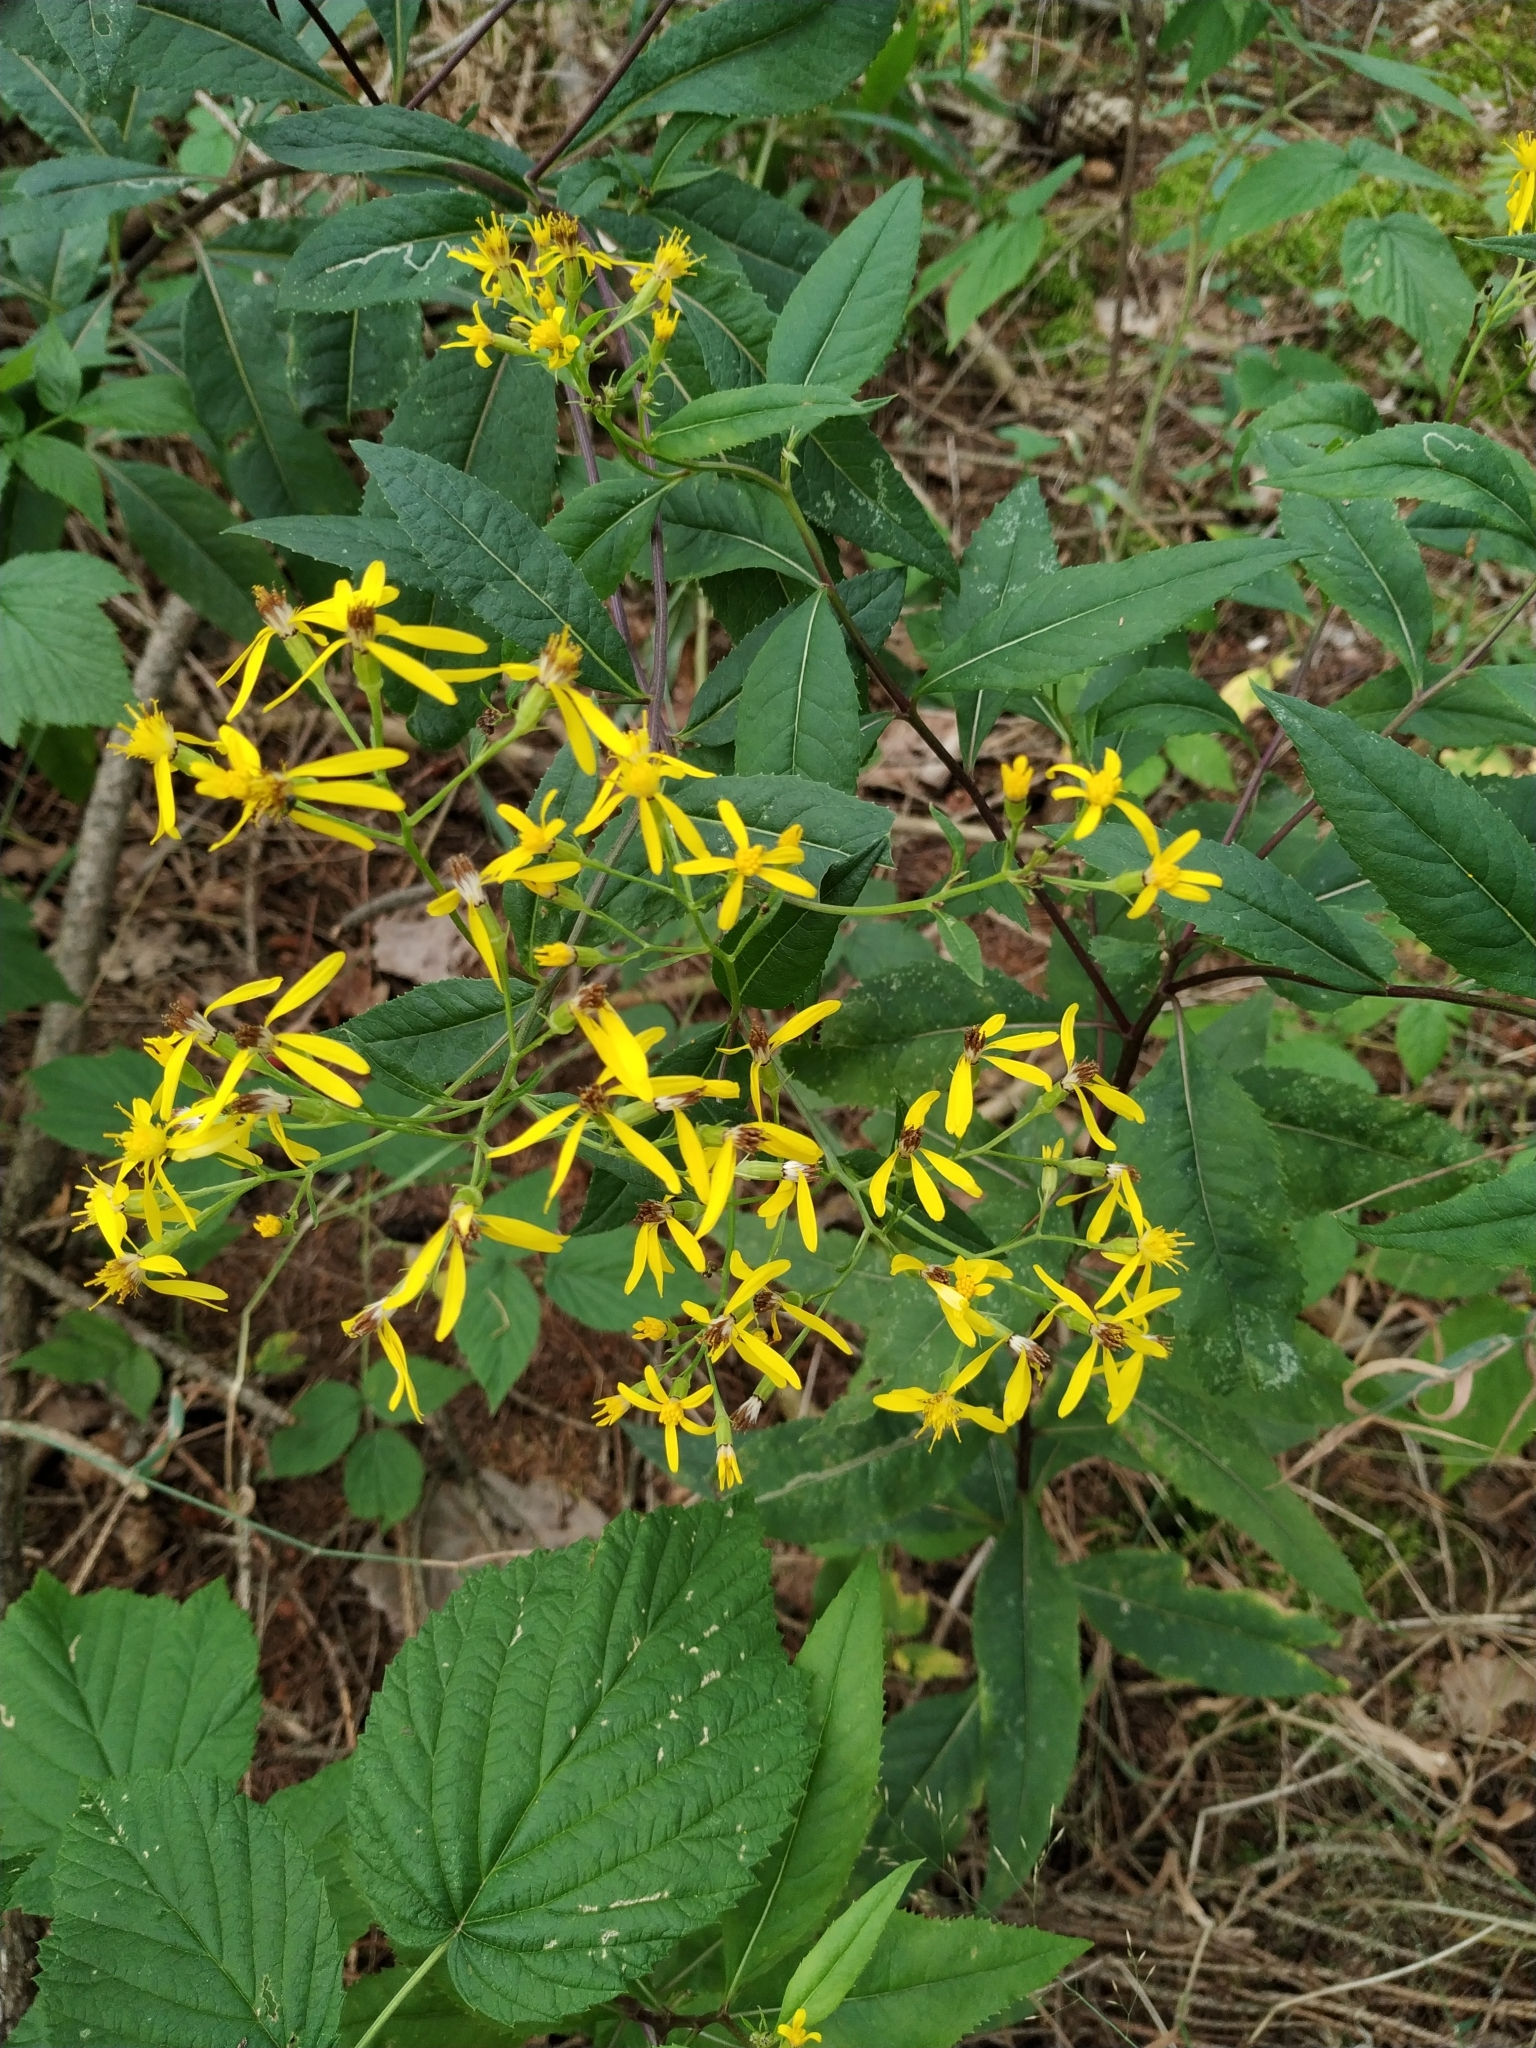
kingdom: Plantae
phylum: Tracheophyta
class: Magnoliopsida
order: Asterales
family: Asteraceae
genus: Senecio
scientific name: Senecio ovatus
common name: Wood ragwort
